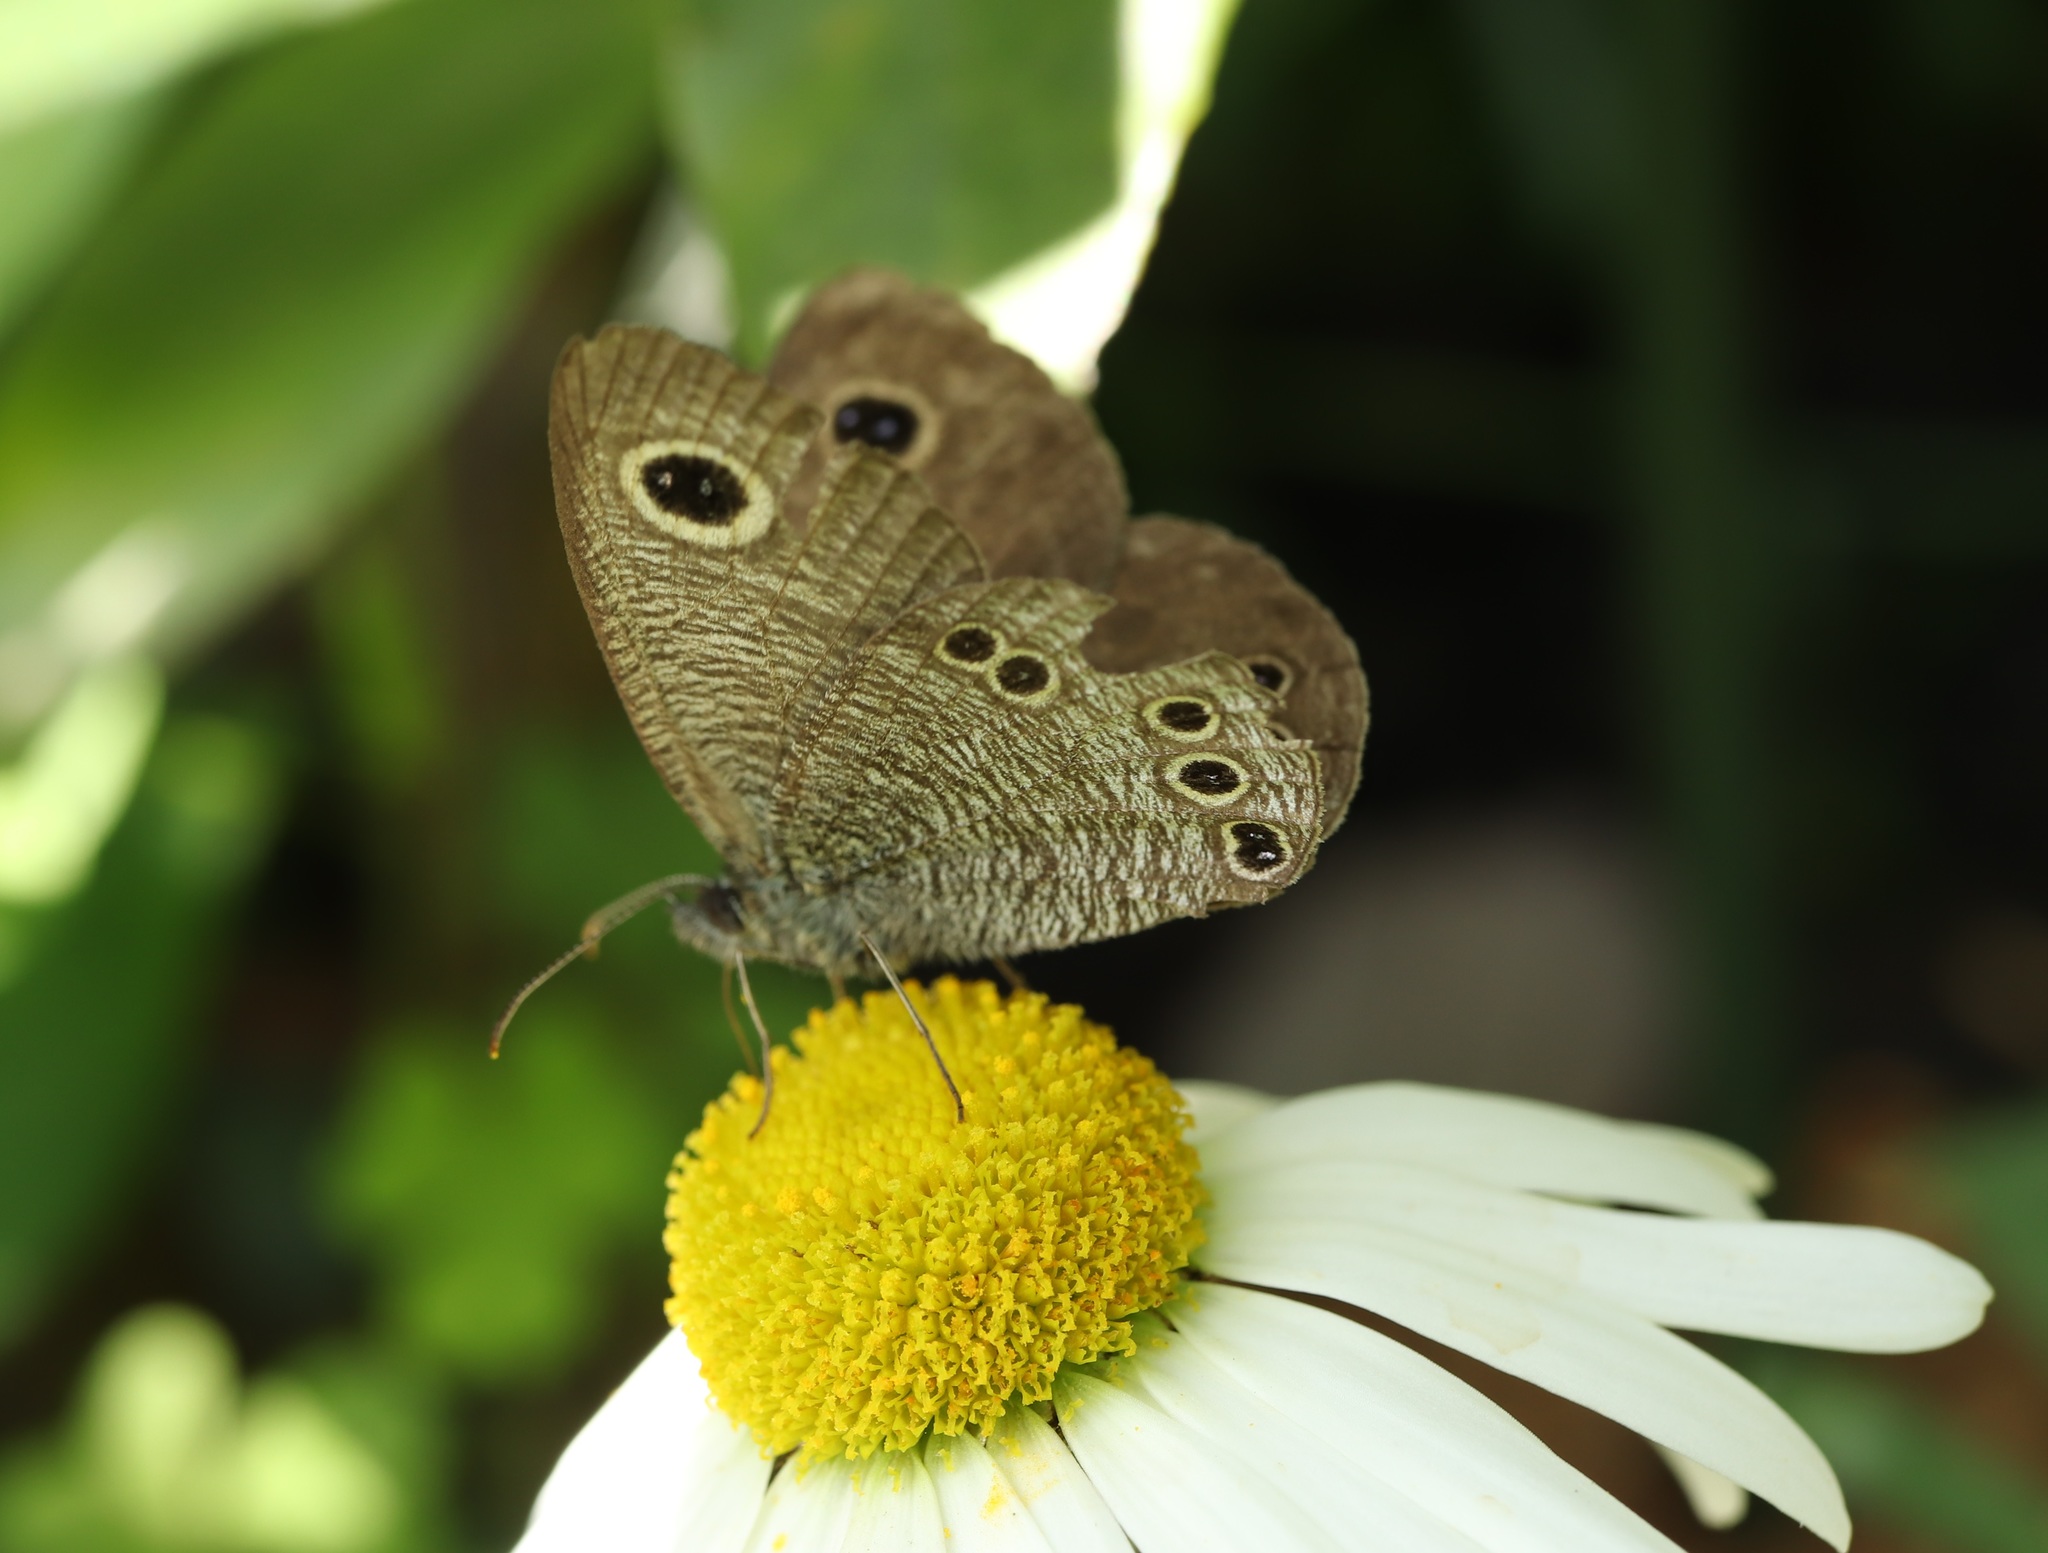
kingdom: Animalia
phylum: Arthropoda
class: Insecta
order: Lepidoptera
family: Nymphalidae
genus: Ypthima
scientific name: Ypthima argus
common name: Common fivering
